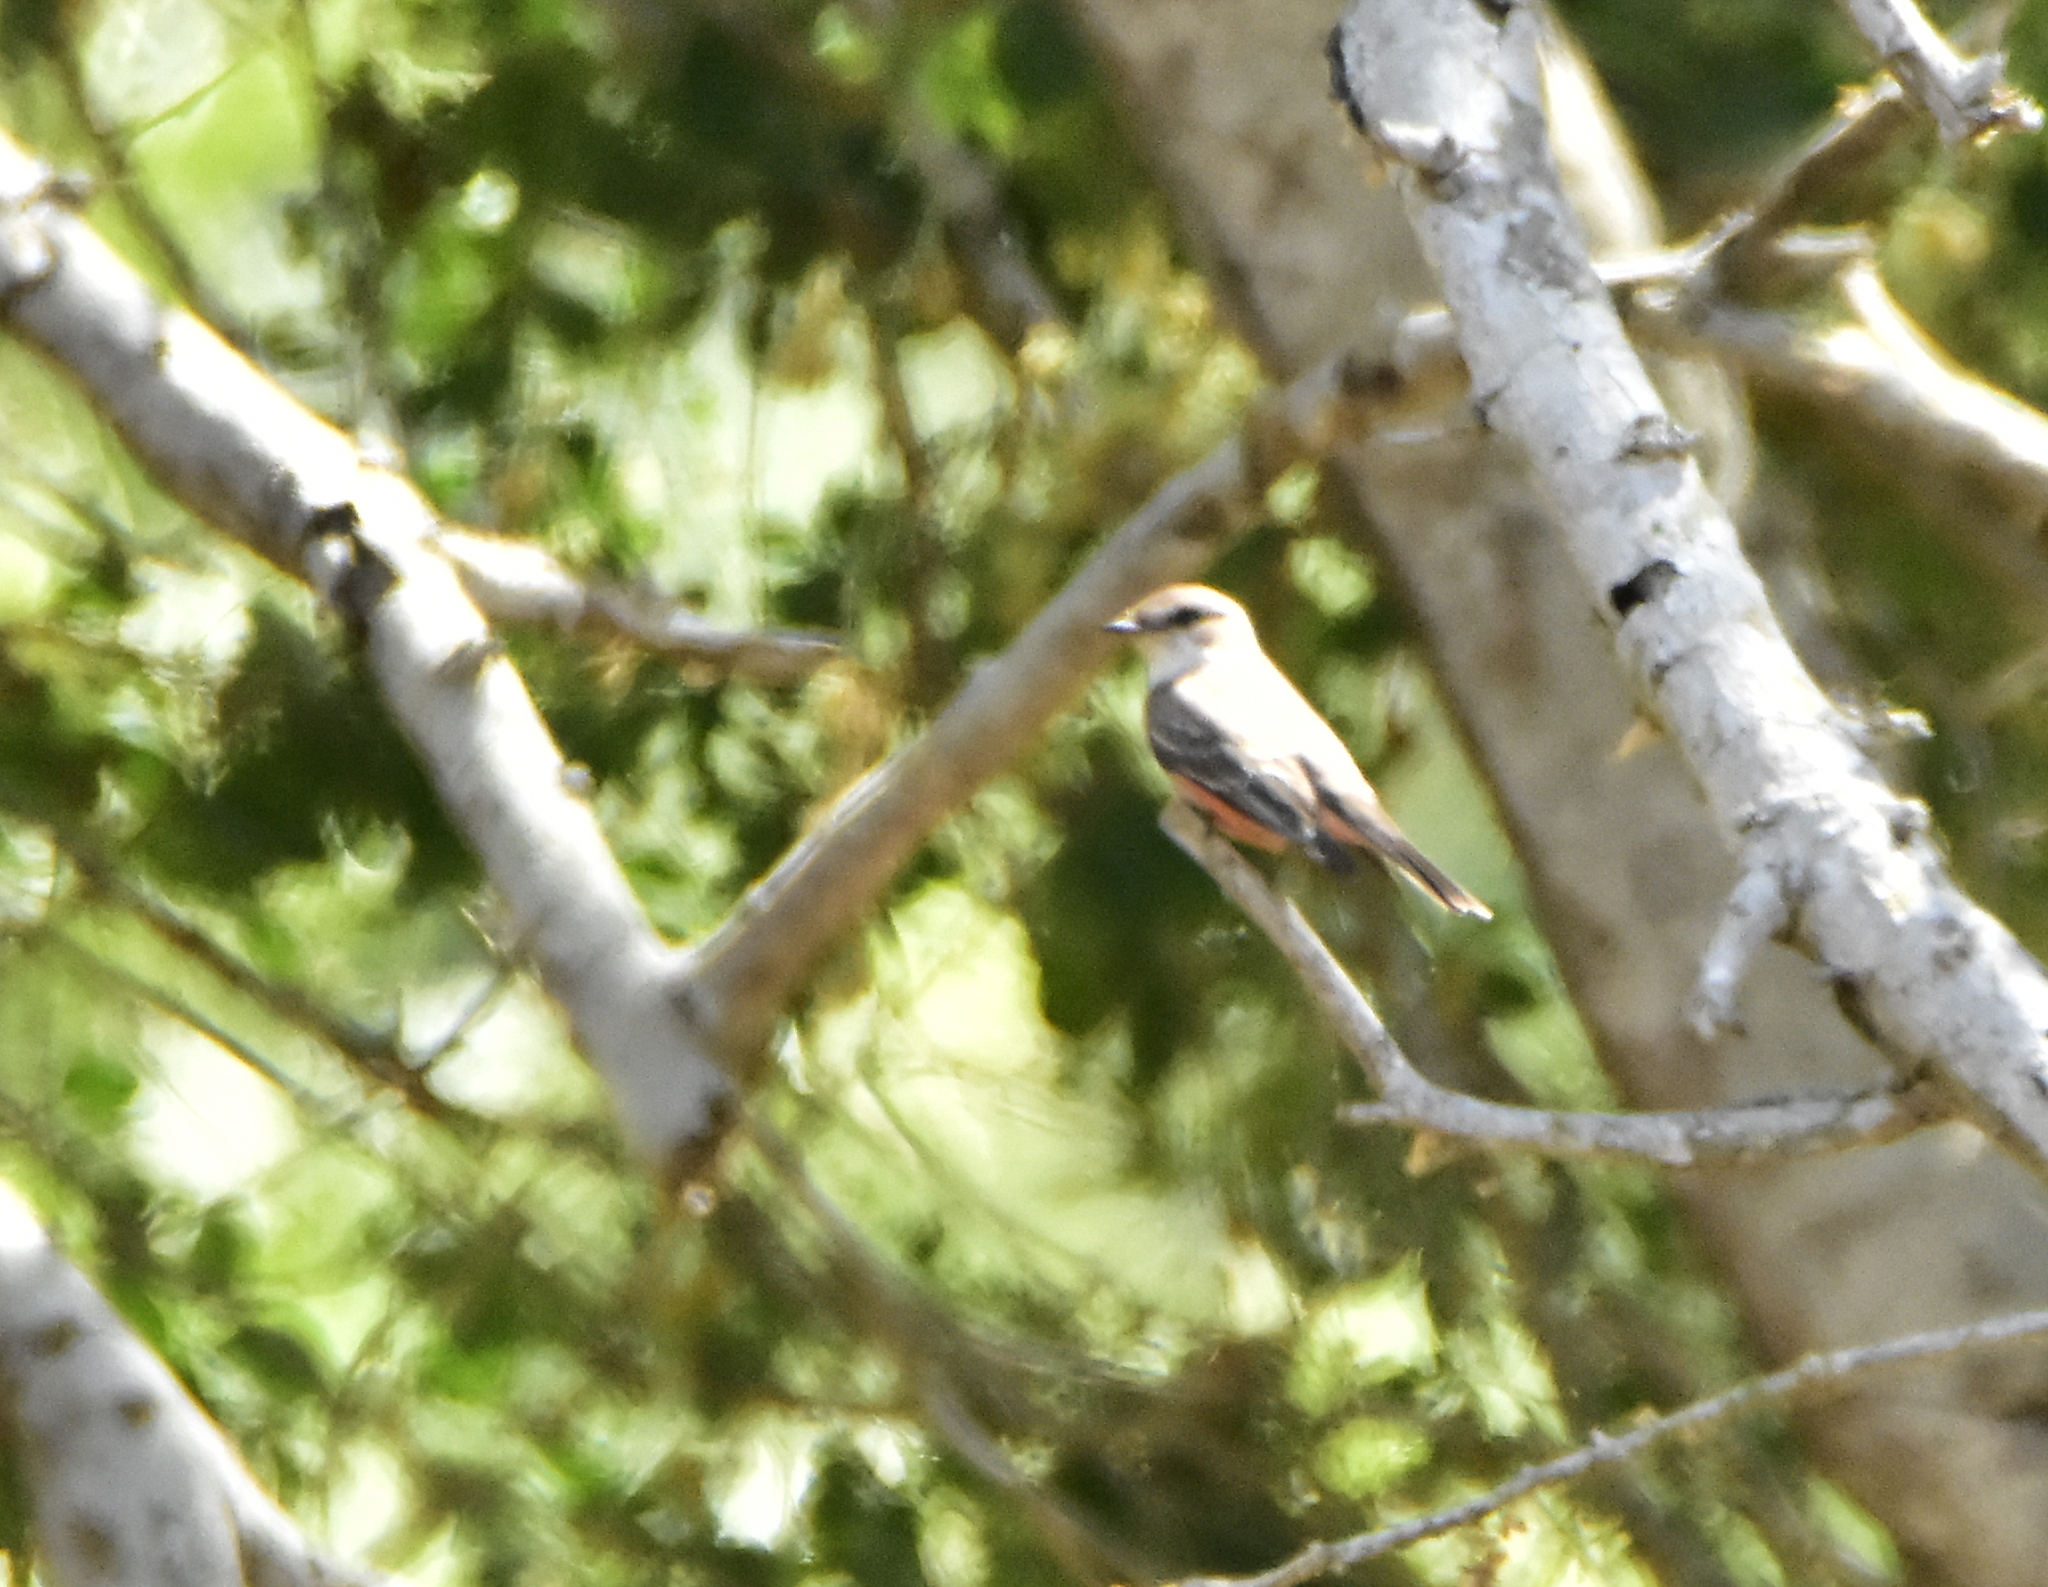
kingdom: Animalia
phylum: Chordata
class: Aves
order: Passeriformes
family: Tyrannidae
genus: Pyrocephalus
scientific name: Pyrocephalus rubinus
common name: Vermilion flycatcher
